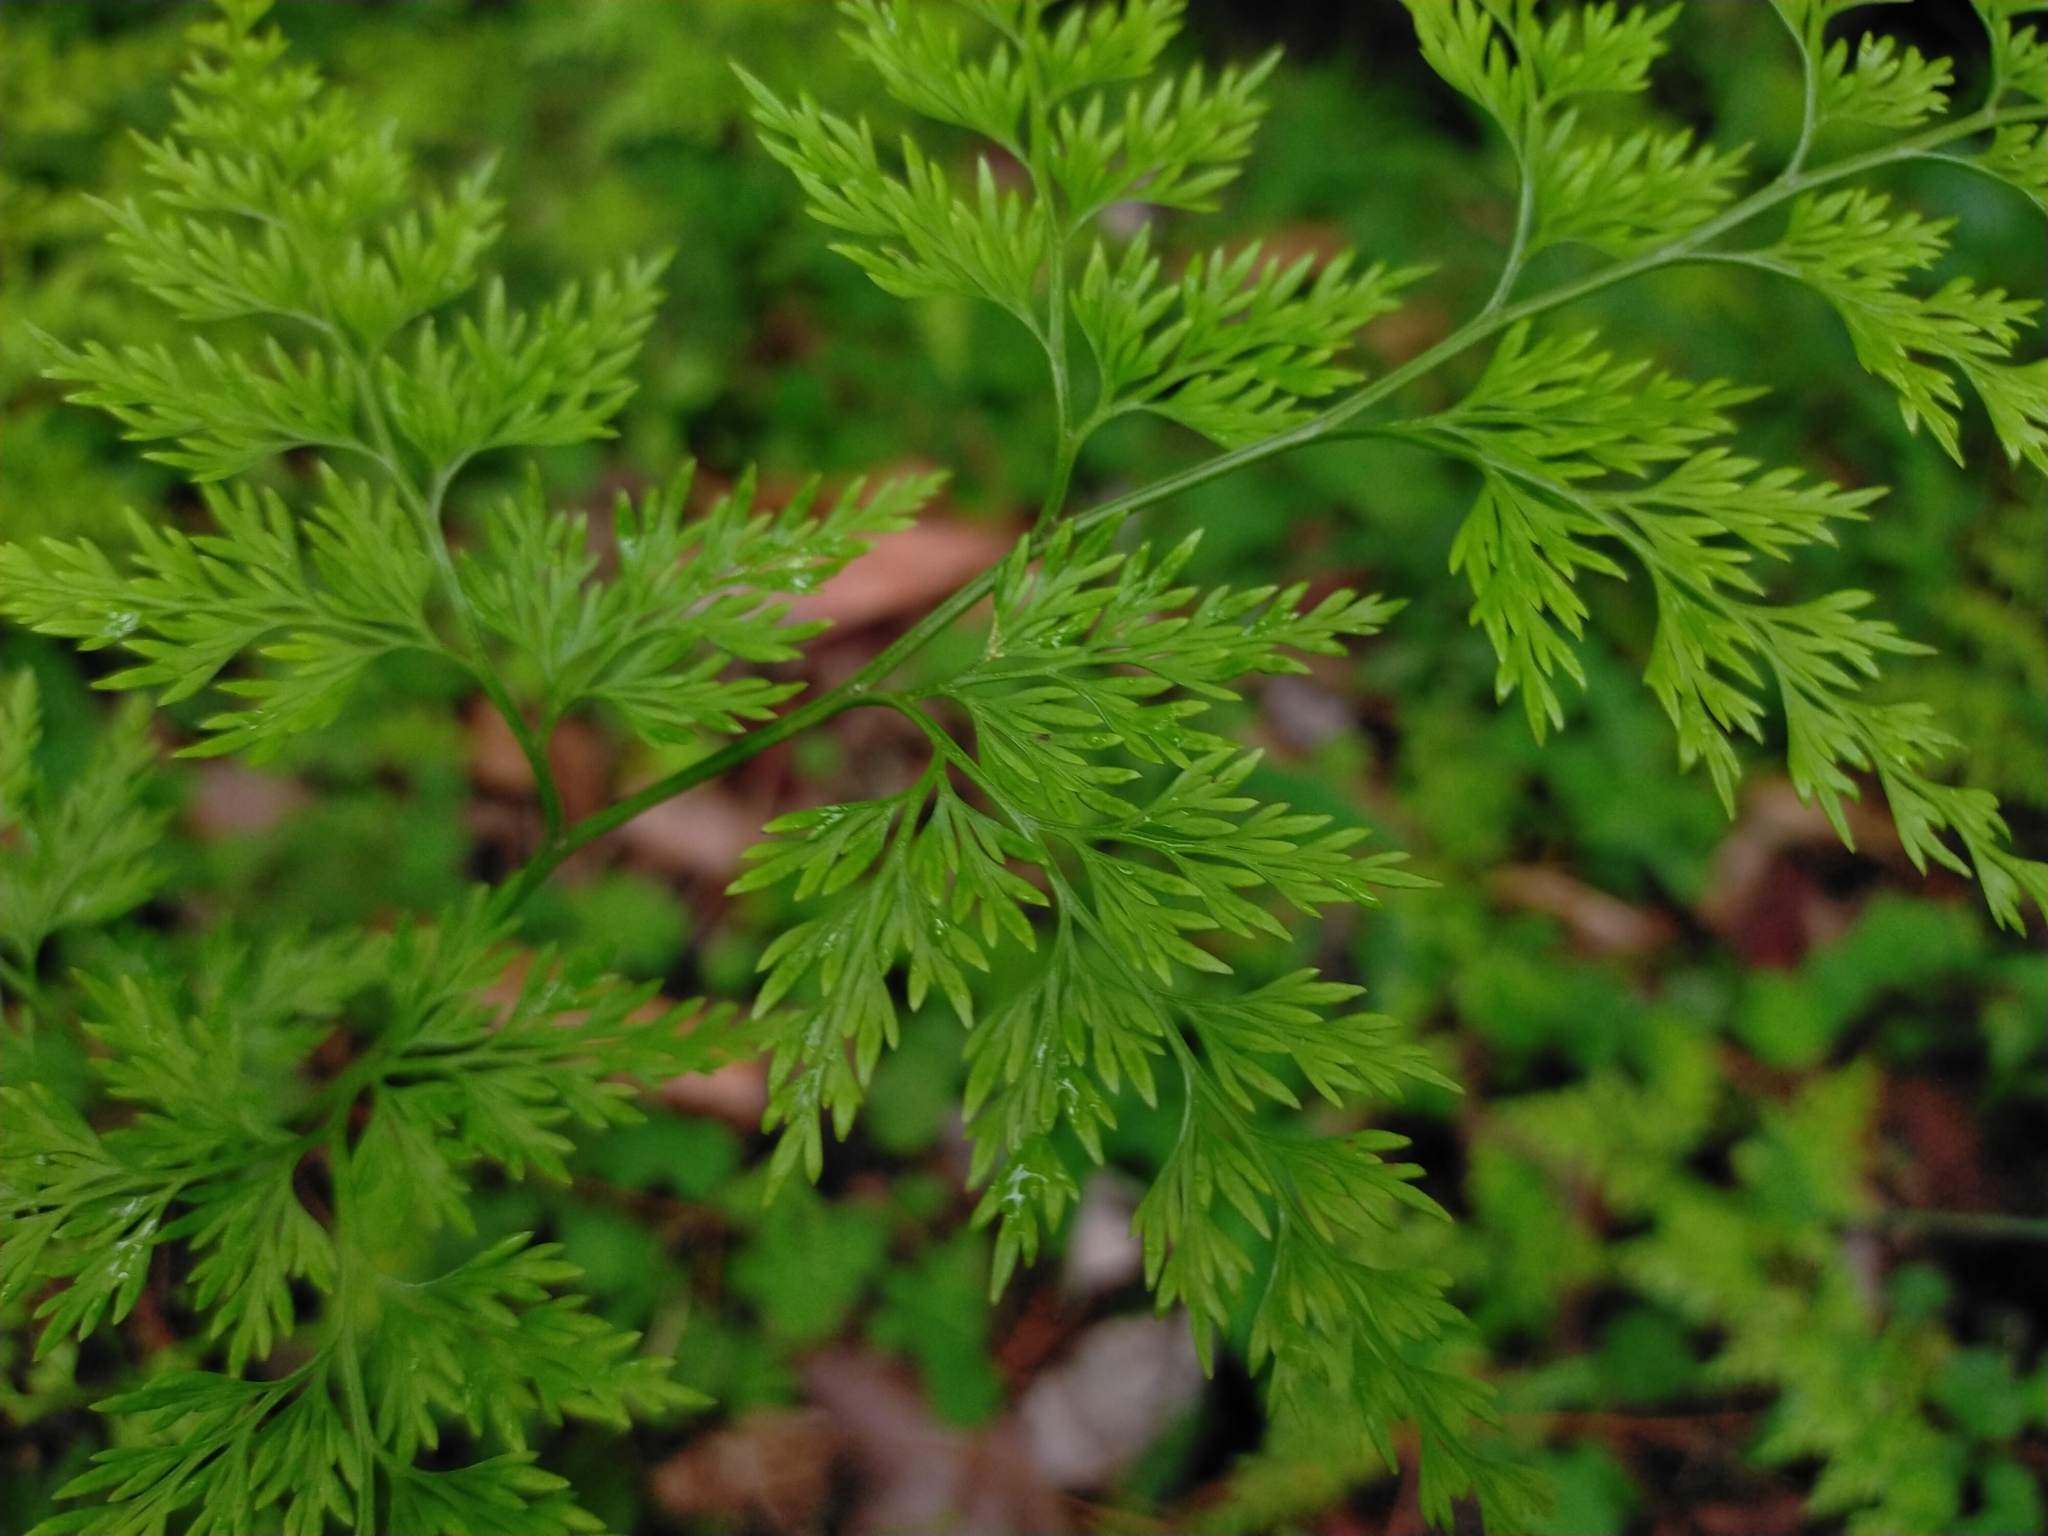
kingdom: Plantae
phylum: Tracheophyta
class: Polypodiopsida
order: Polypodiales
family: Pteridaceae
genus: Onychium
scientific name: Onychium japonicum
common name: Carrot fern
